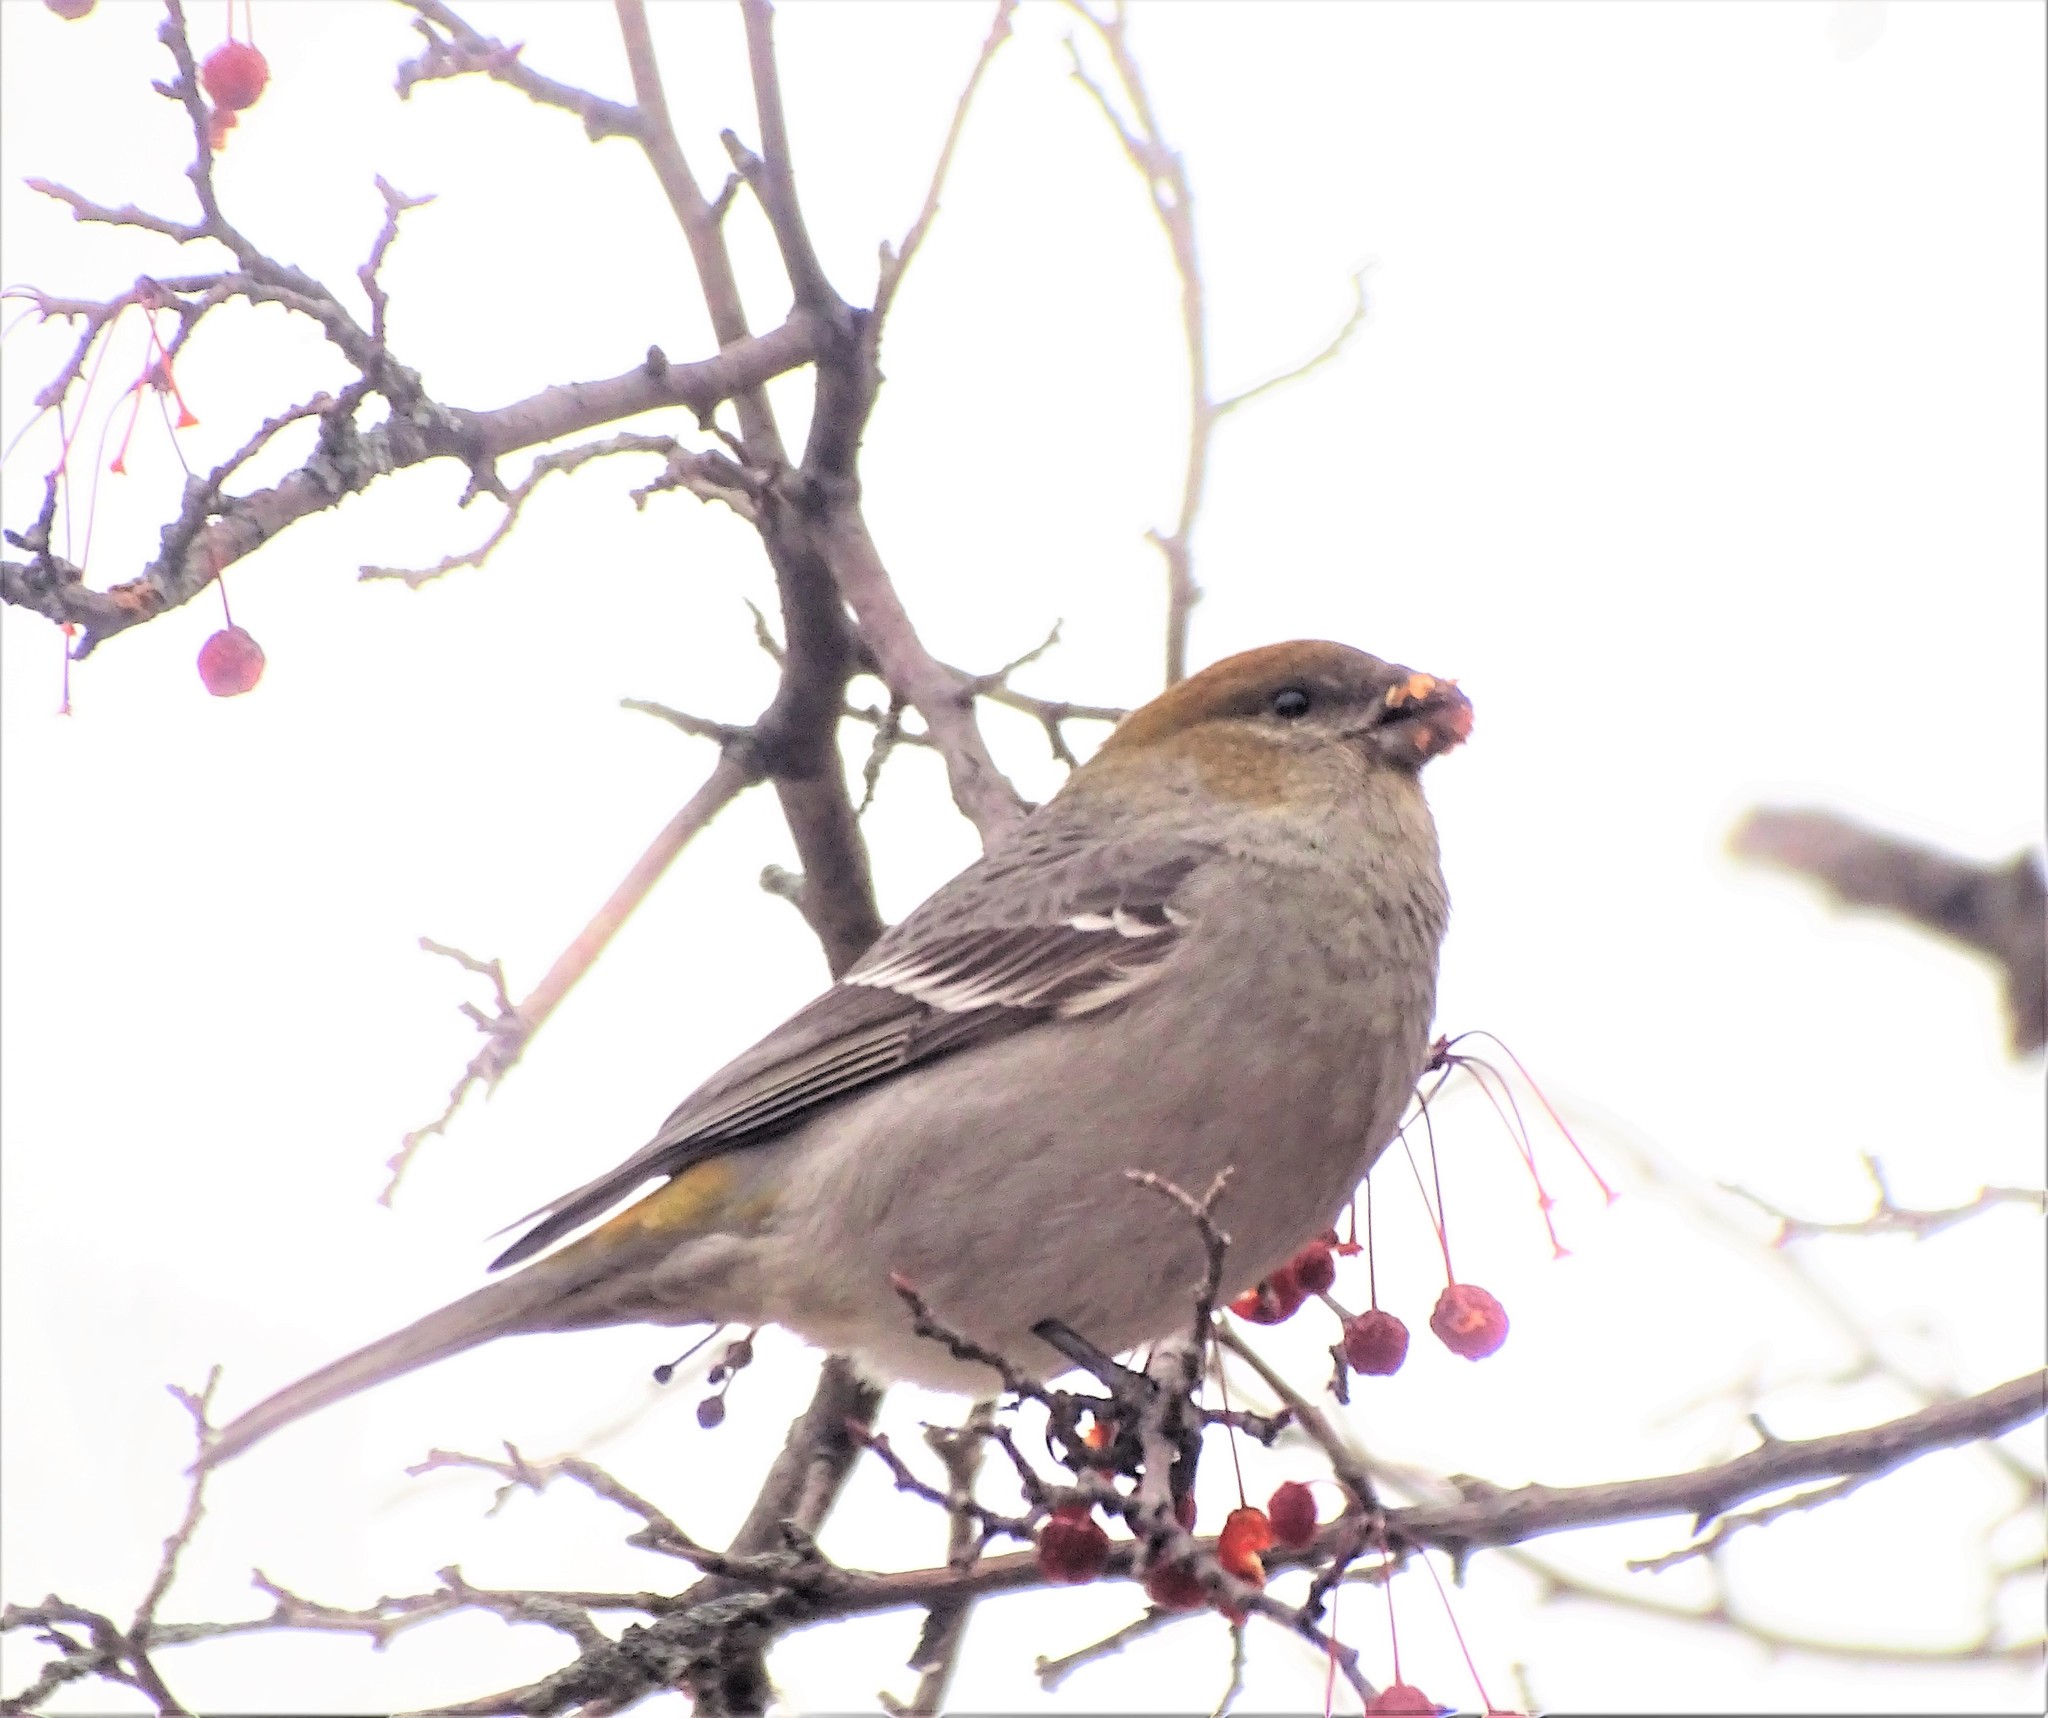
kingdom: Animalia
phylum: Chordata
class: Aves
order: Passeriformes
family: Fringillidae
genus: Pinicola
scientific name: Pinicola enucleator
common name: Pine grosbeak
